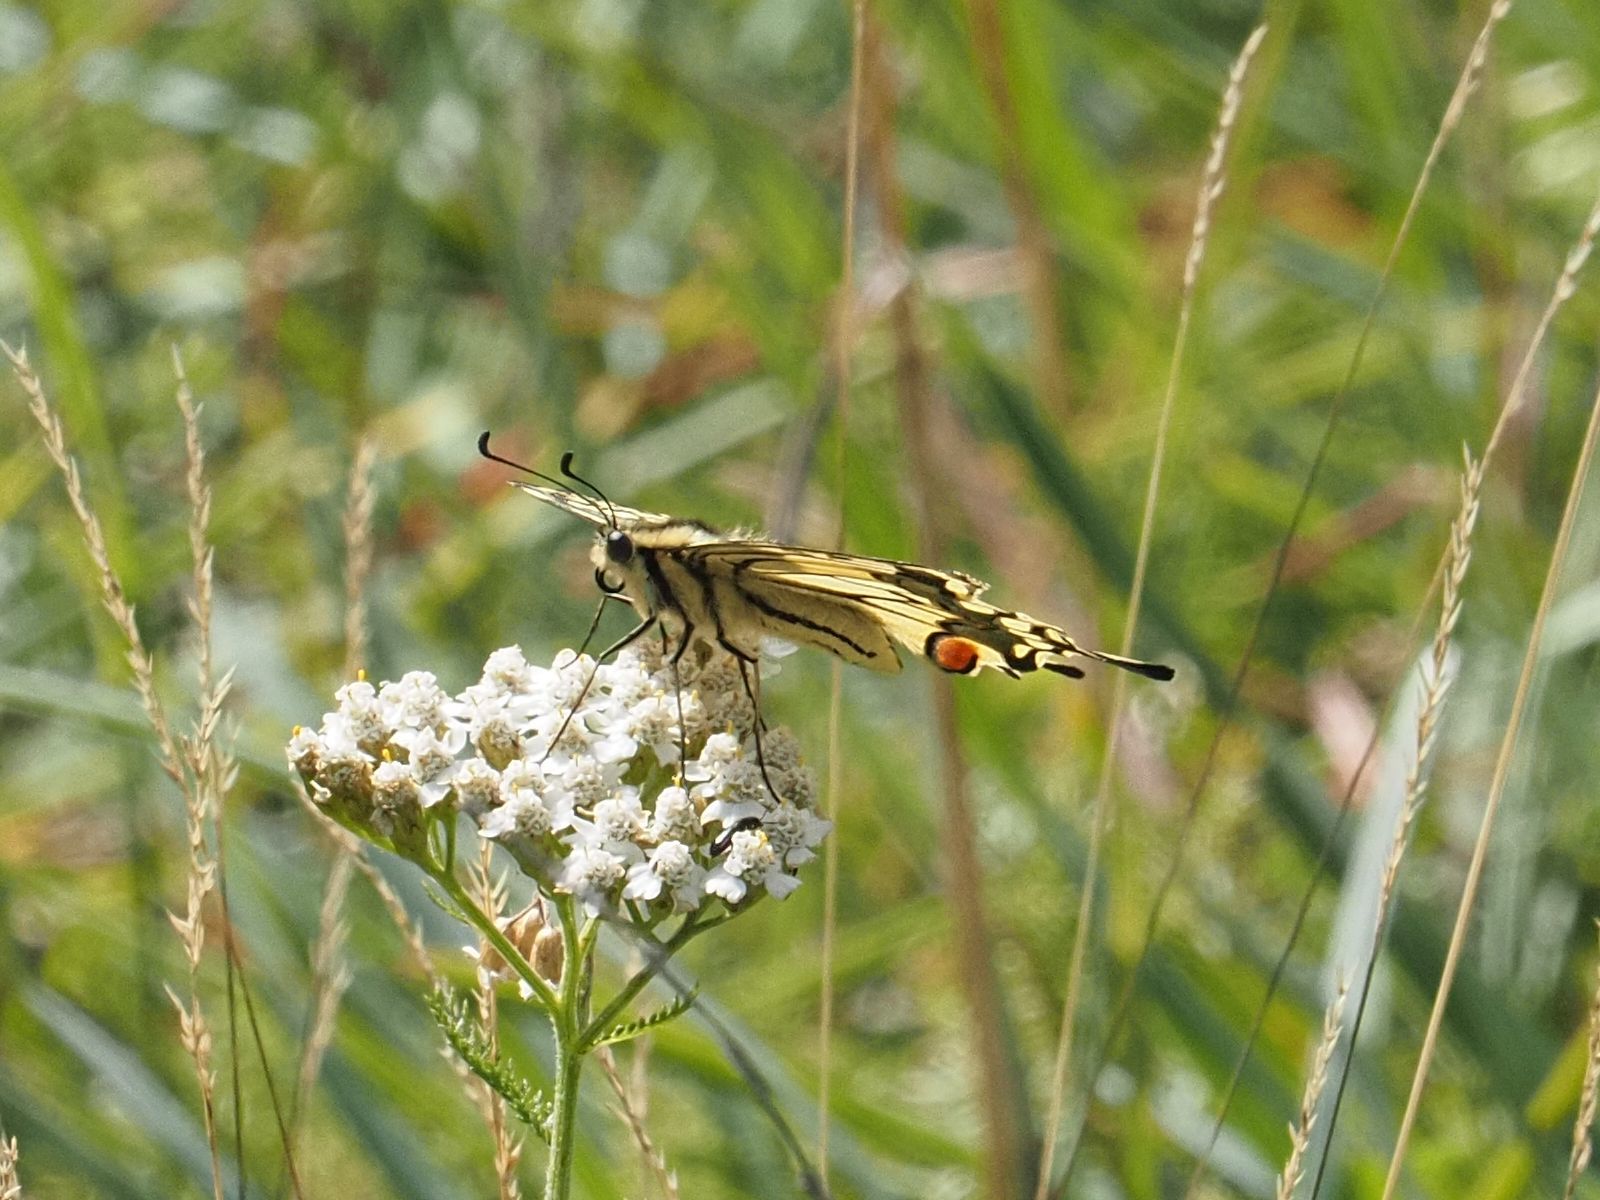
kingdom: Animalia
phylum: Arthropoda
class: Insecta
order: Lepidoptera
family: Papilionidae
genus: Papilio
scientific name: Papilio machaon
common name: Swallowtail
